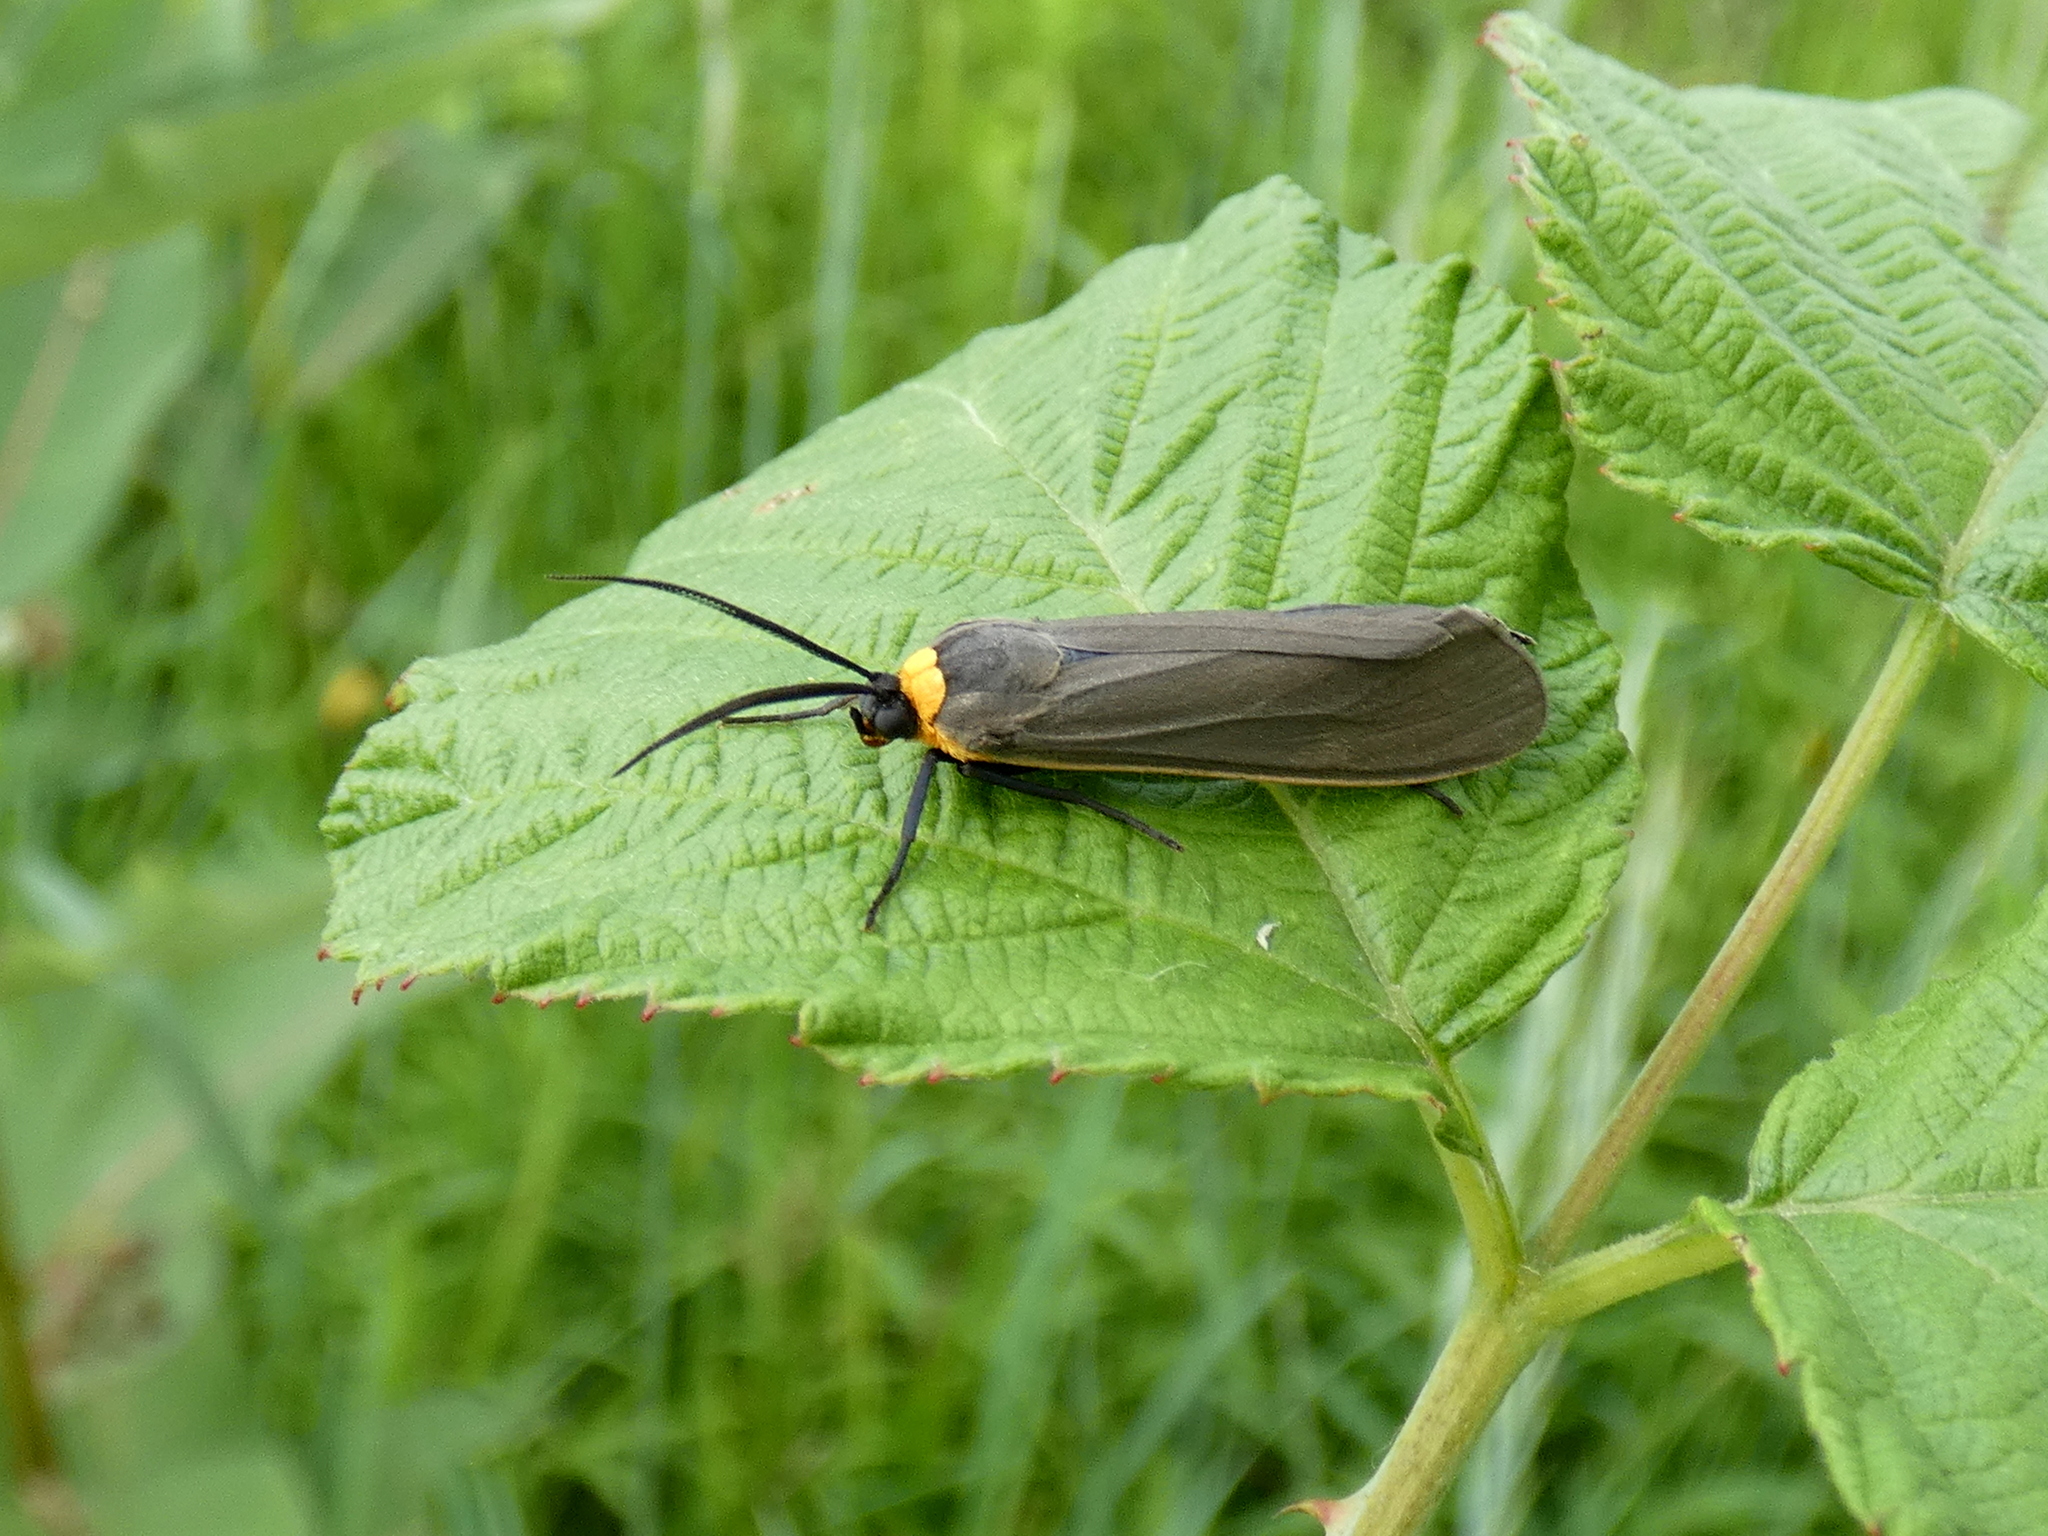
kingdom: Animalia
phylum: Arthropoda
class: Insecta
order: Lepidoptera
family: Erebidae
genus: Cisseps
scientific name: Cisseps fulvicollis
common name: Yellow-collared scape moth
